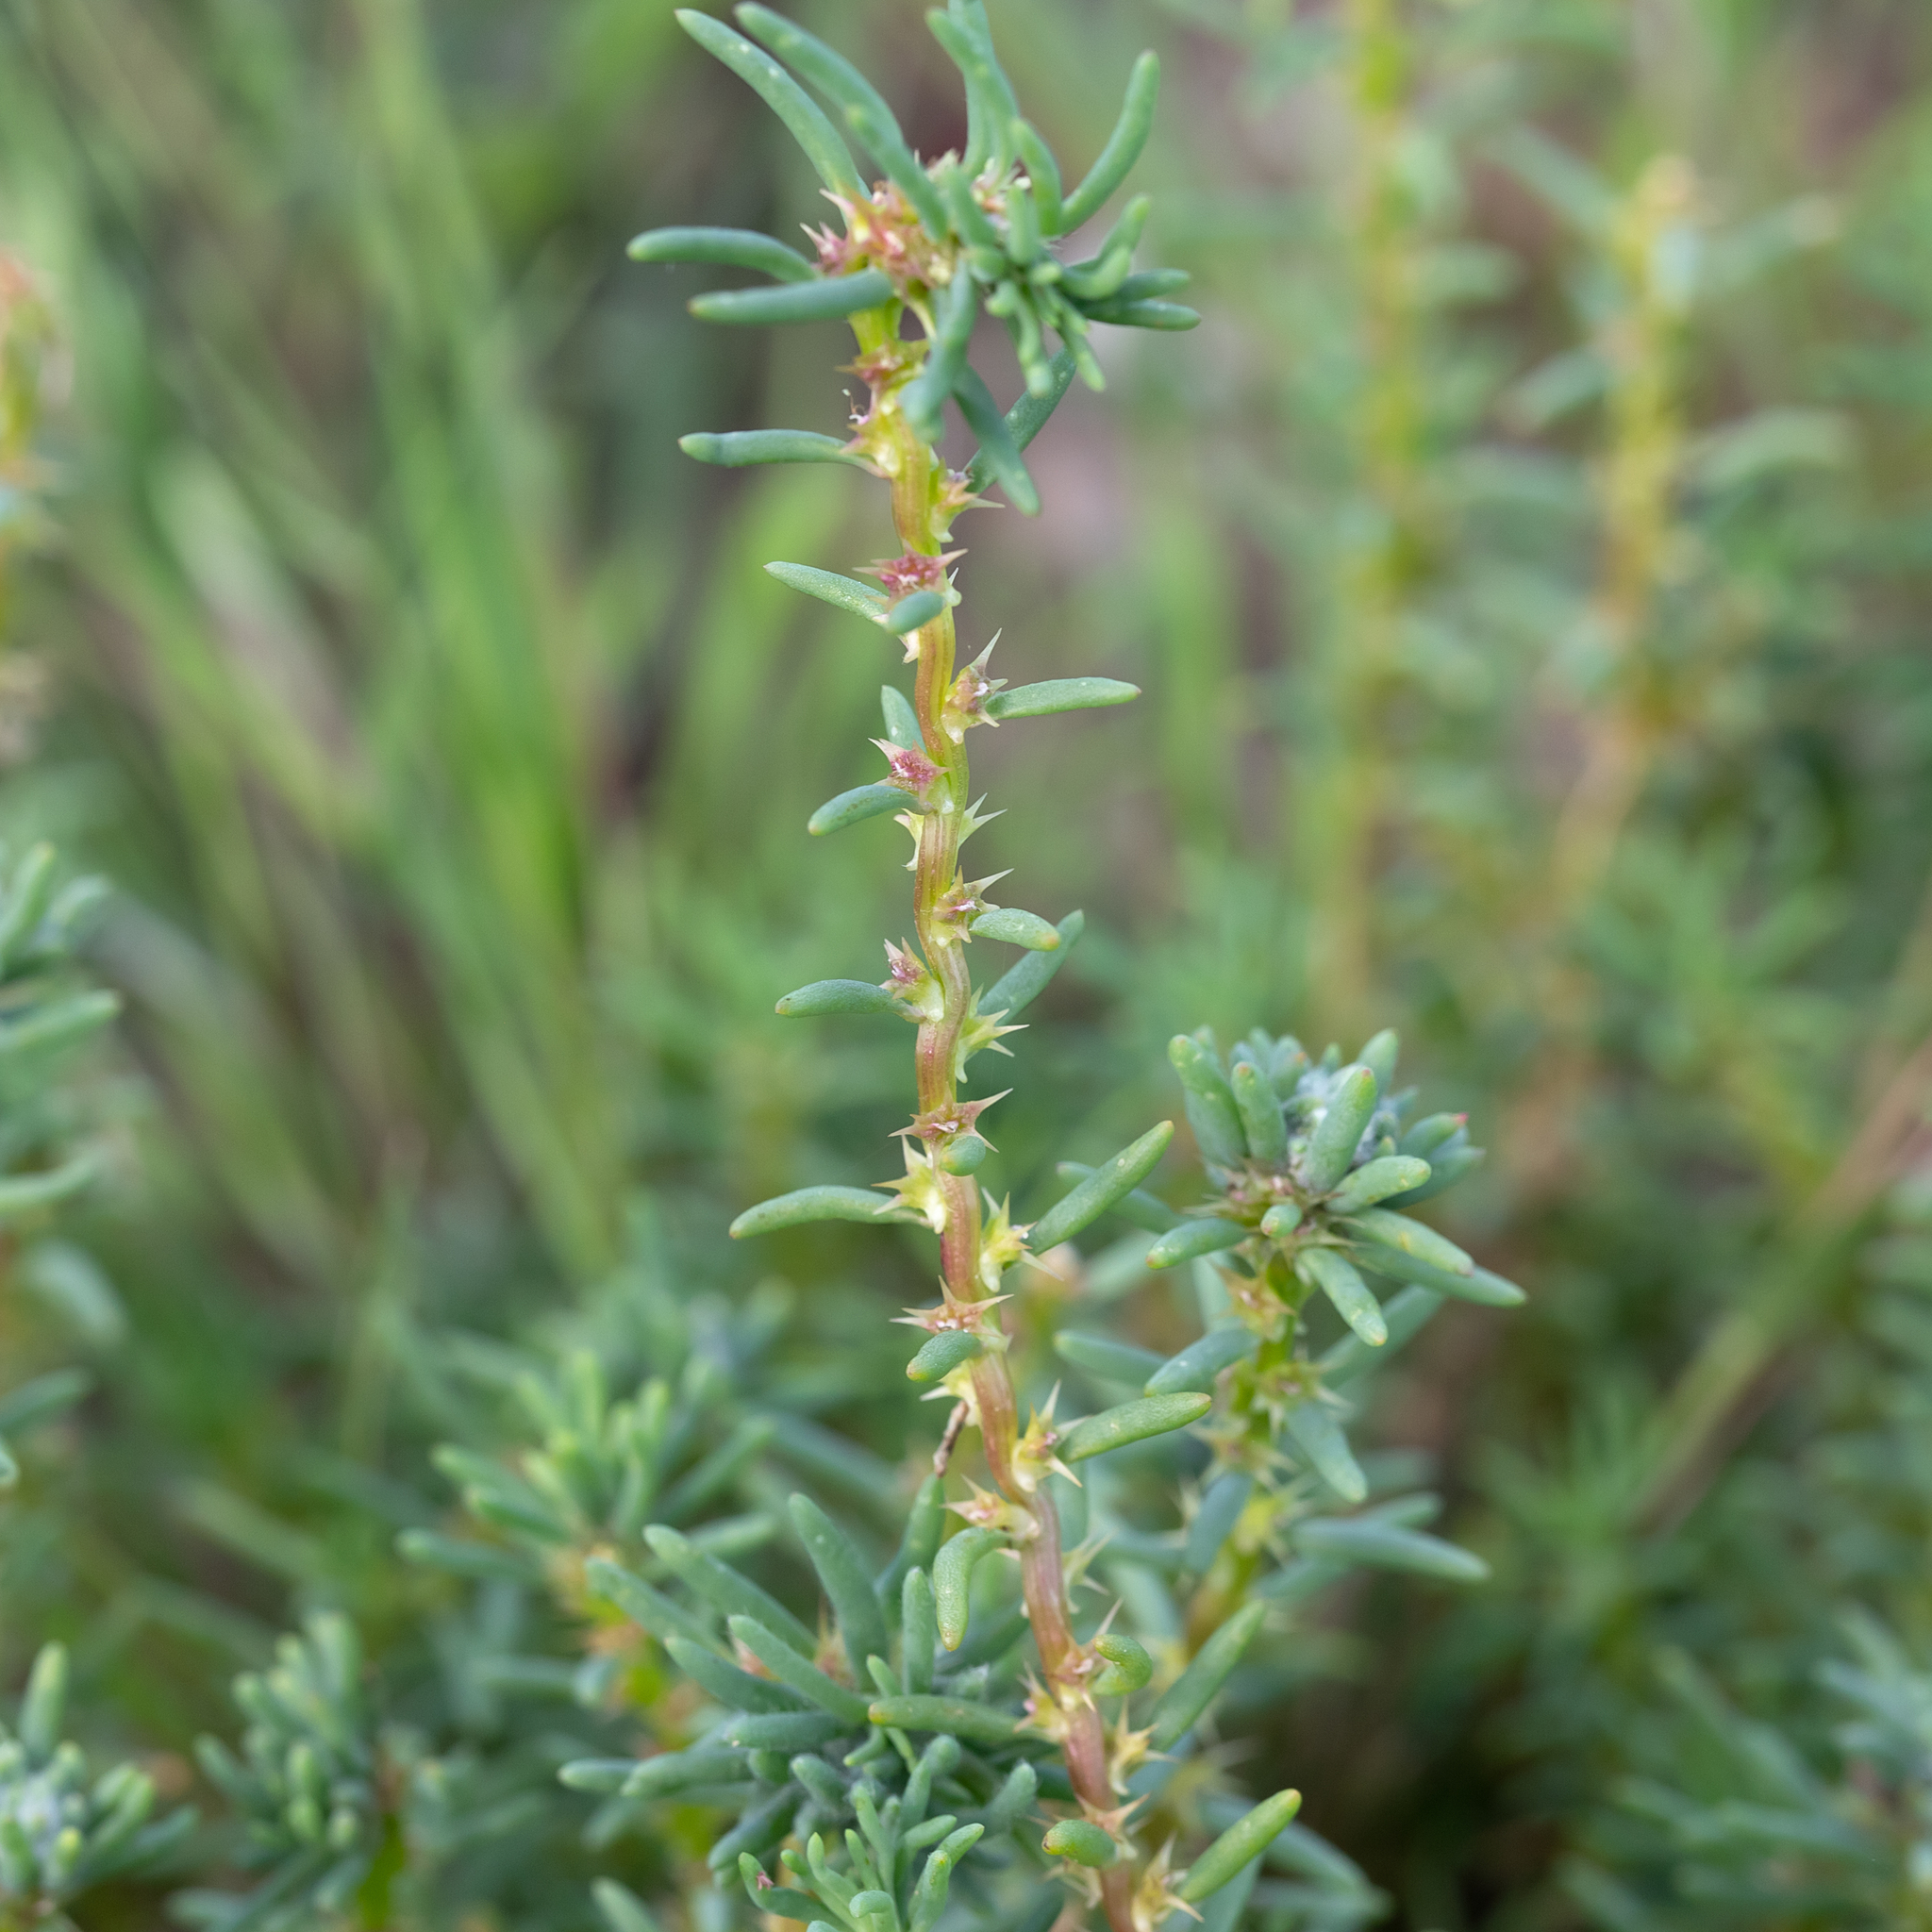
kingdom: Plantae
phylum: Tracheophyta
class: Magnoliopsida
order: Caryophyllales
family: Amaranthaceae
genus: Sclerolaena
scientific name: Sclerolaena calcarata
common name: Red copperbur
